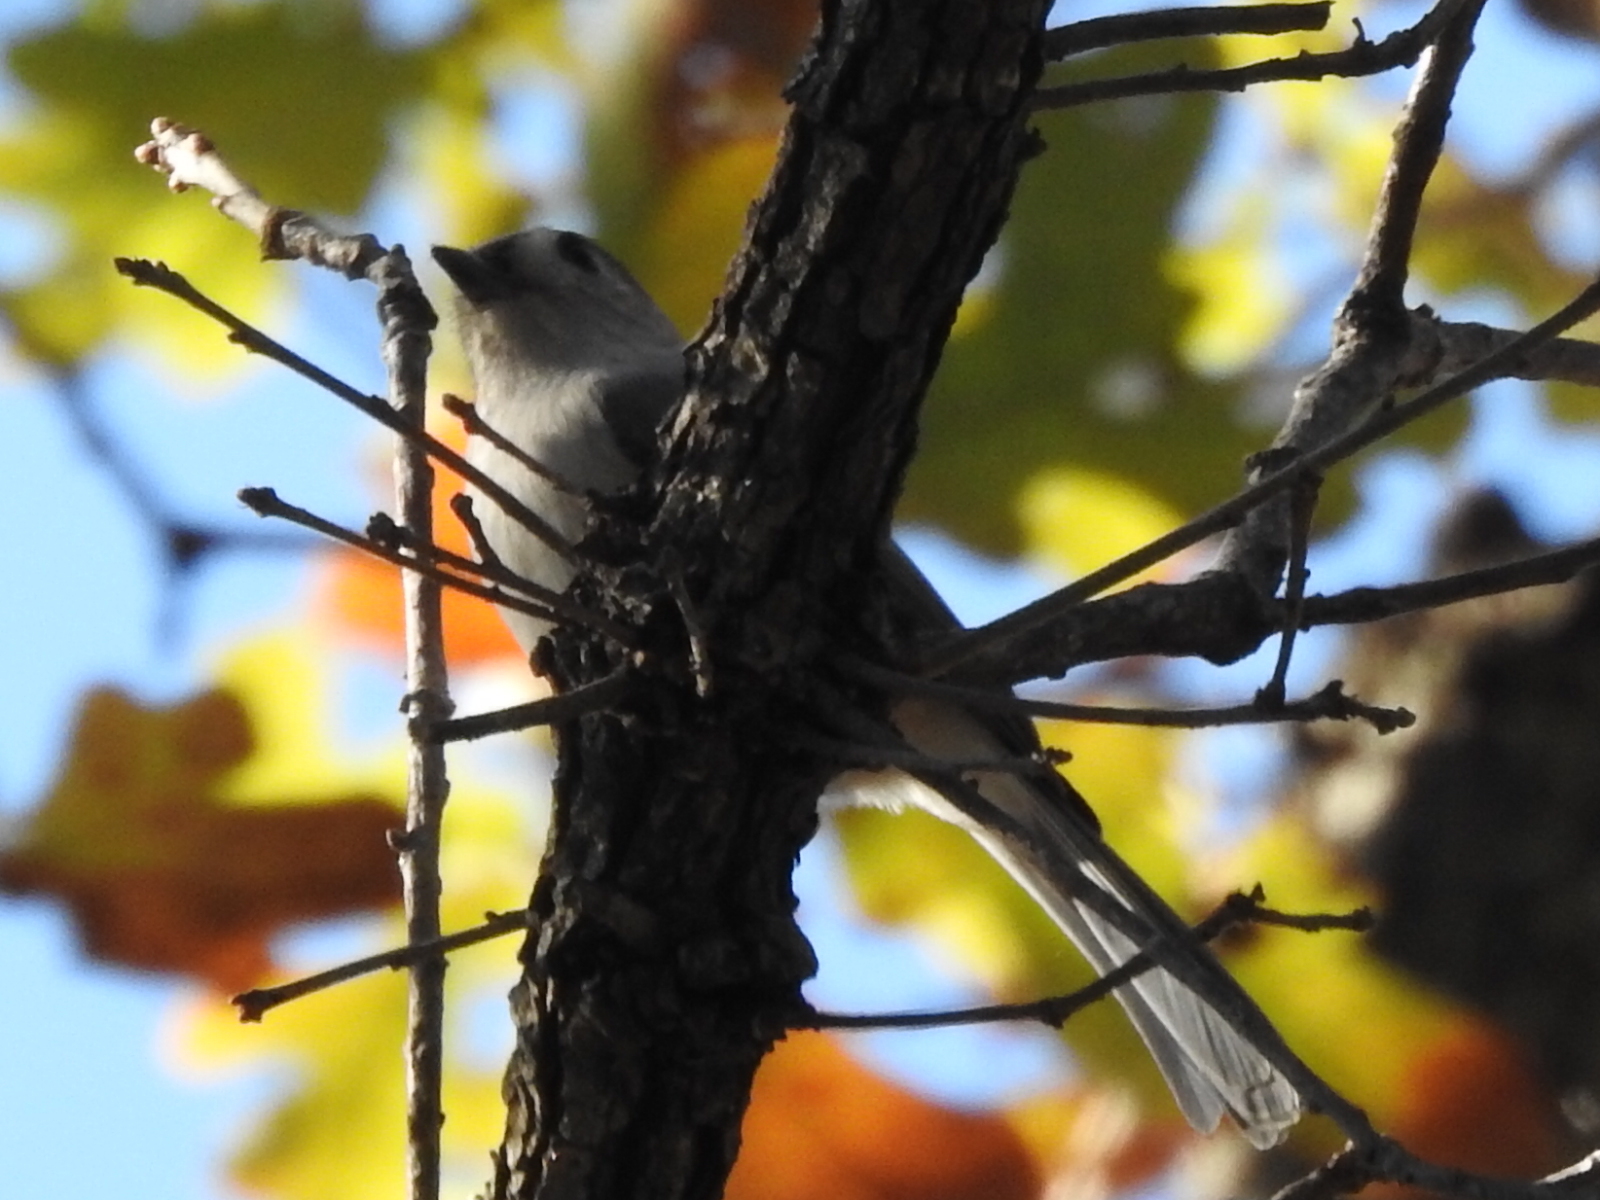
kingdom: Animalia
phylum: Chordata
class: Aves
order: Passeriformes
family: Paridae
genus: Baeolophus
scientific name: Baeolophus bicolor
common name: Tufted titmouse
